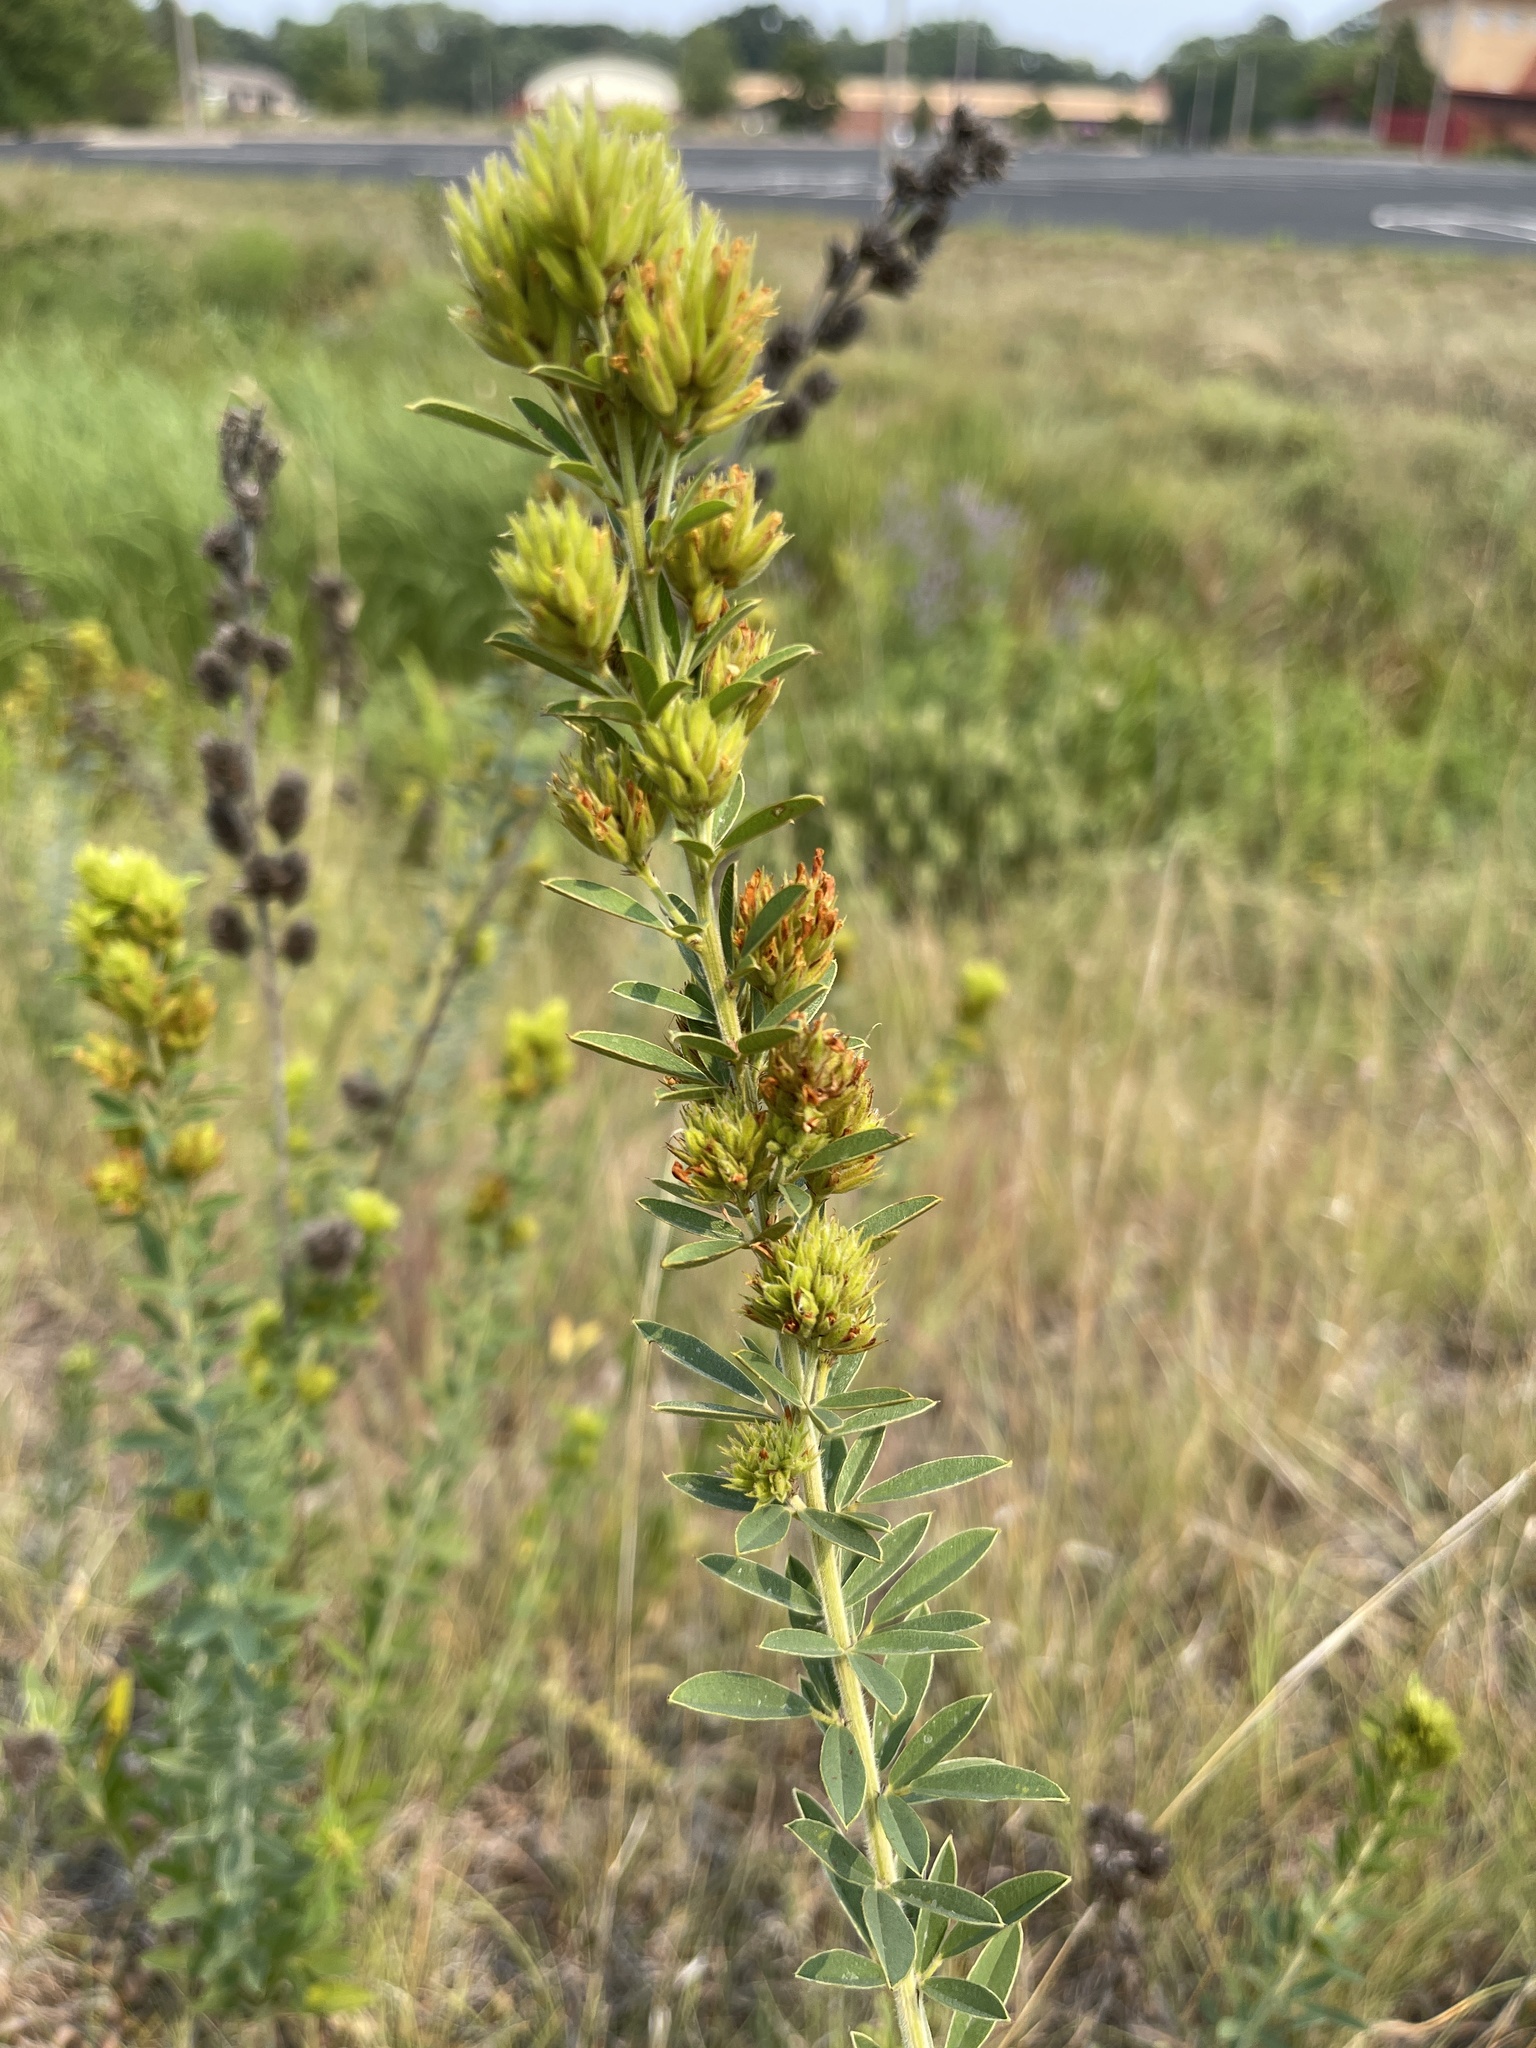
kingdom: Plantae
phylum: Tracheophyta
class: Magnoliopsida
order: Fabales
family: Fabaceae
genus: Lespedeza
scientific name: Lespedeza capitata
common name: Dusty clover
